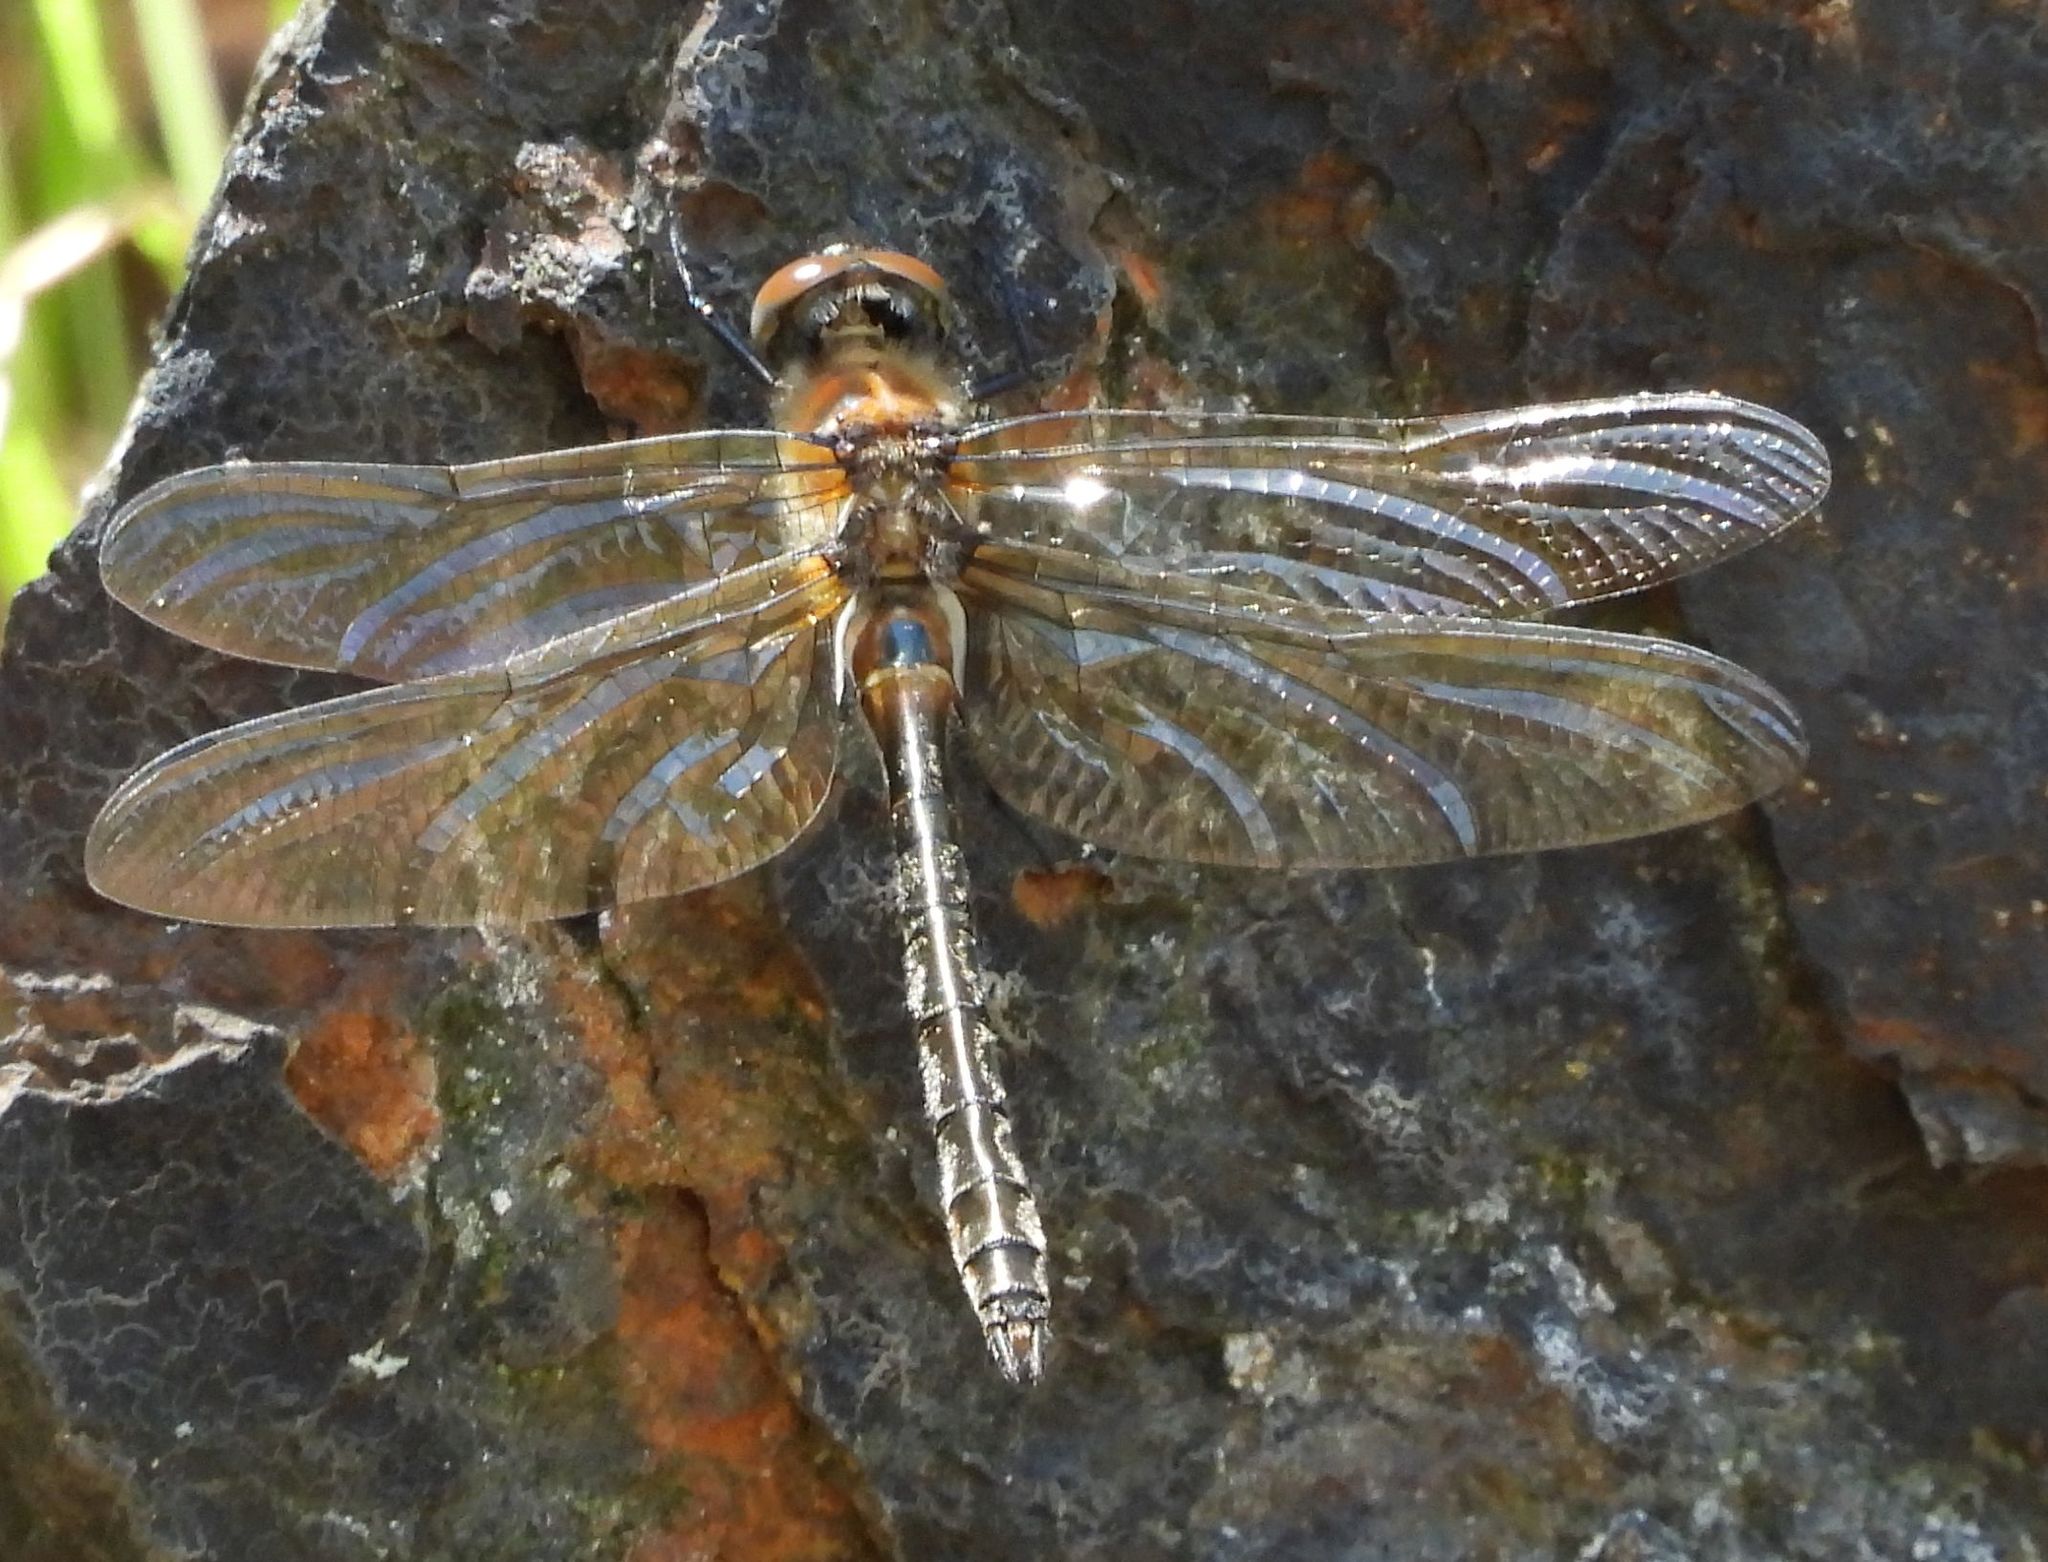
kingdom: Animalia
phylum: Arthropoda
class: Insecta
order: Odonata
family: Corduliidae
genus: Cordulia
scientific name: Cordulia shurtleffii
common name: American emerald
